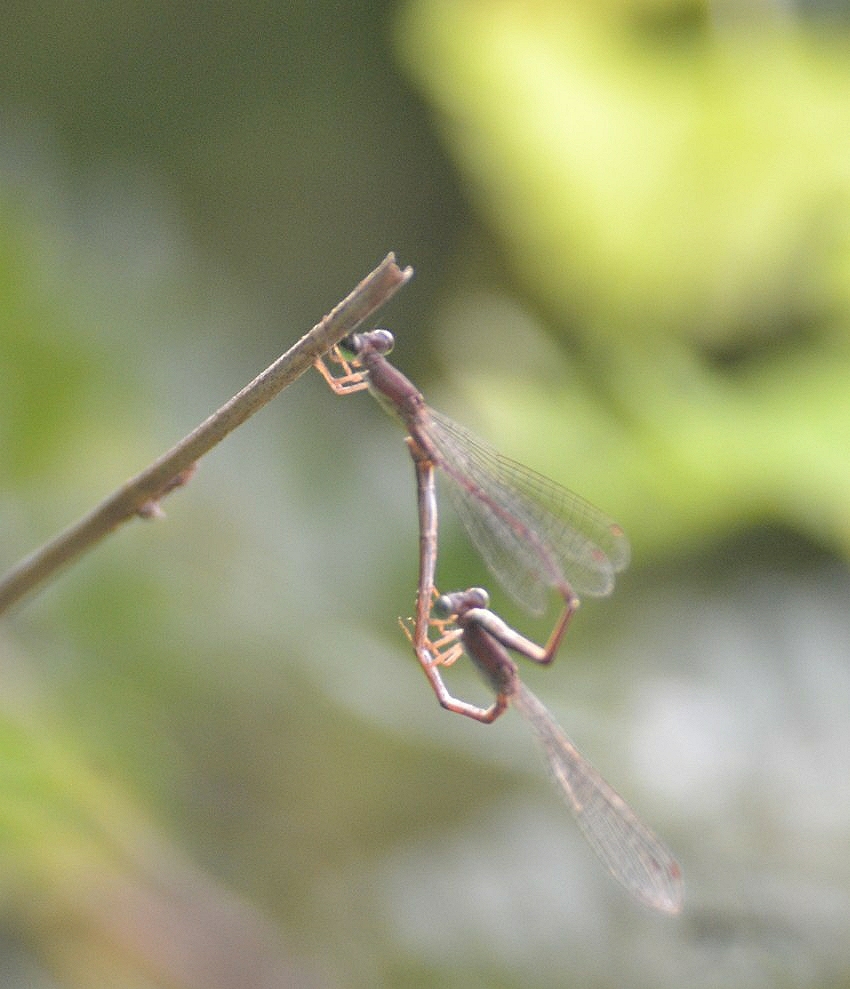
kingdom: Animalia
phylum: Arthropoda
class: Insecta
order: Odonata
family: Coenagrionidae
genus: Mortonagrion
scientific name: Mortonagrion varralli
